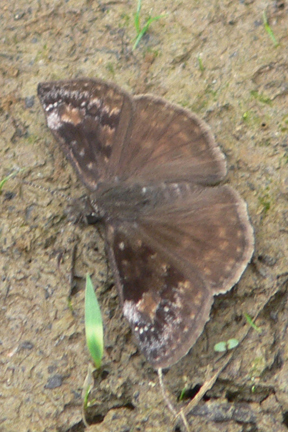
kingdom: Animalia
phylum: Arthropoda
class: Insecta
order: Lepidoptera
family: Hesperiidae
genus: Erynnis
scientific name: Erynnis baptisiae
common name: Wild indigo duskywing
